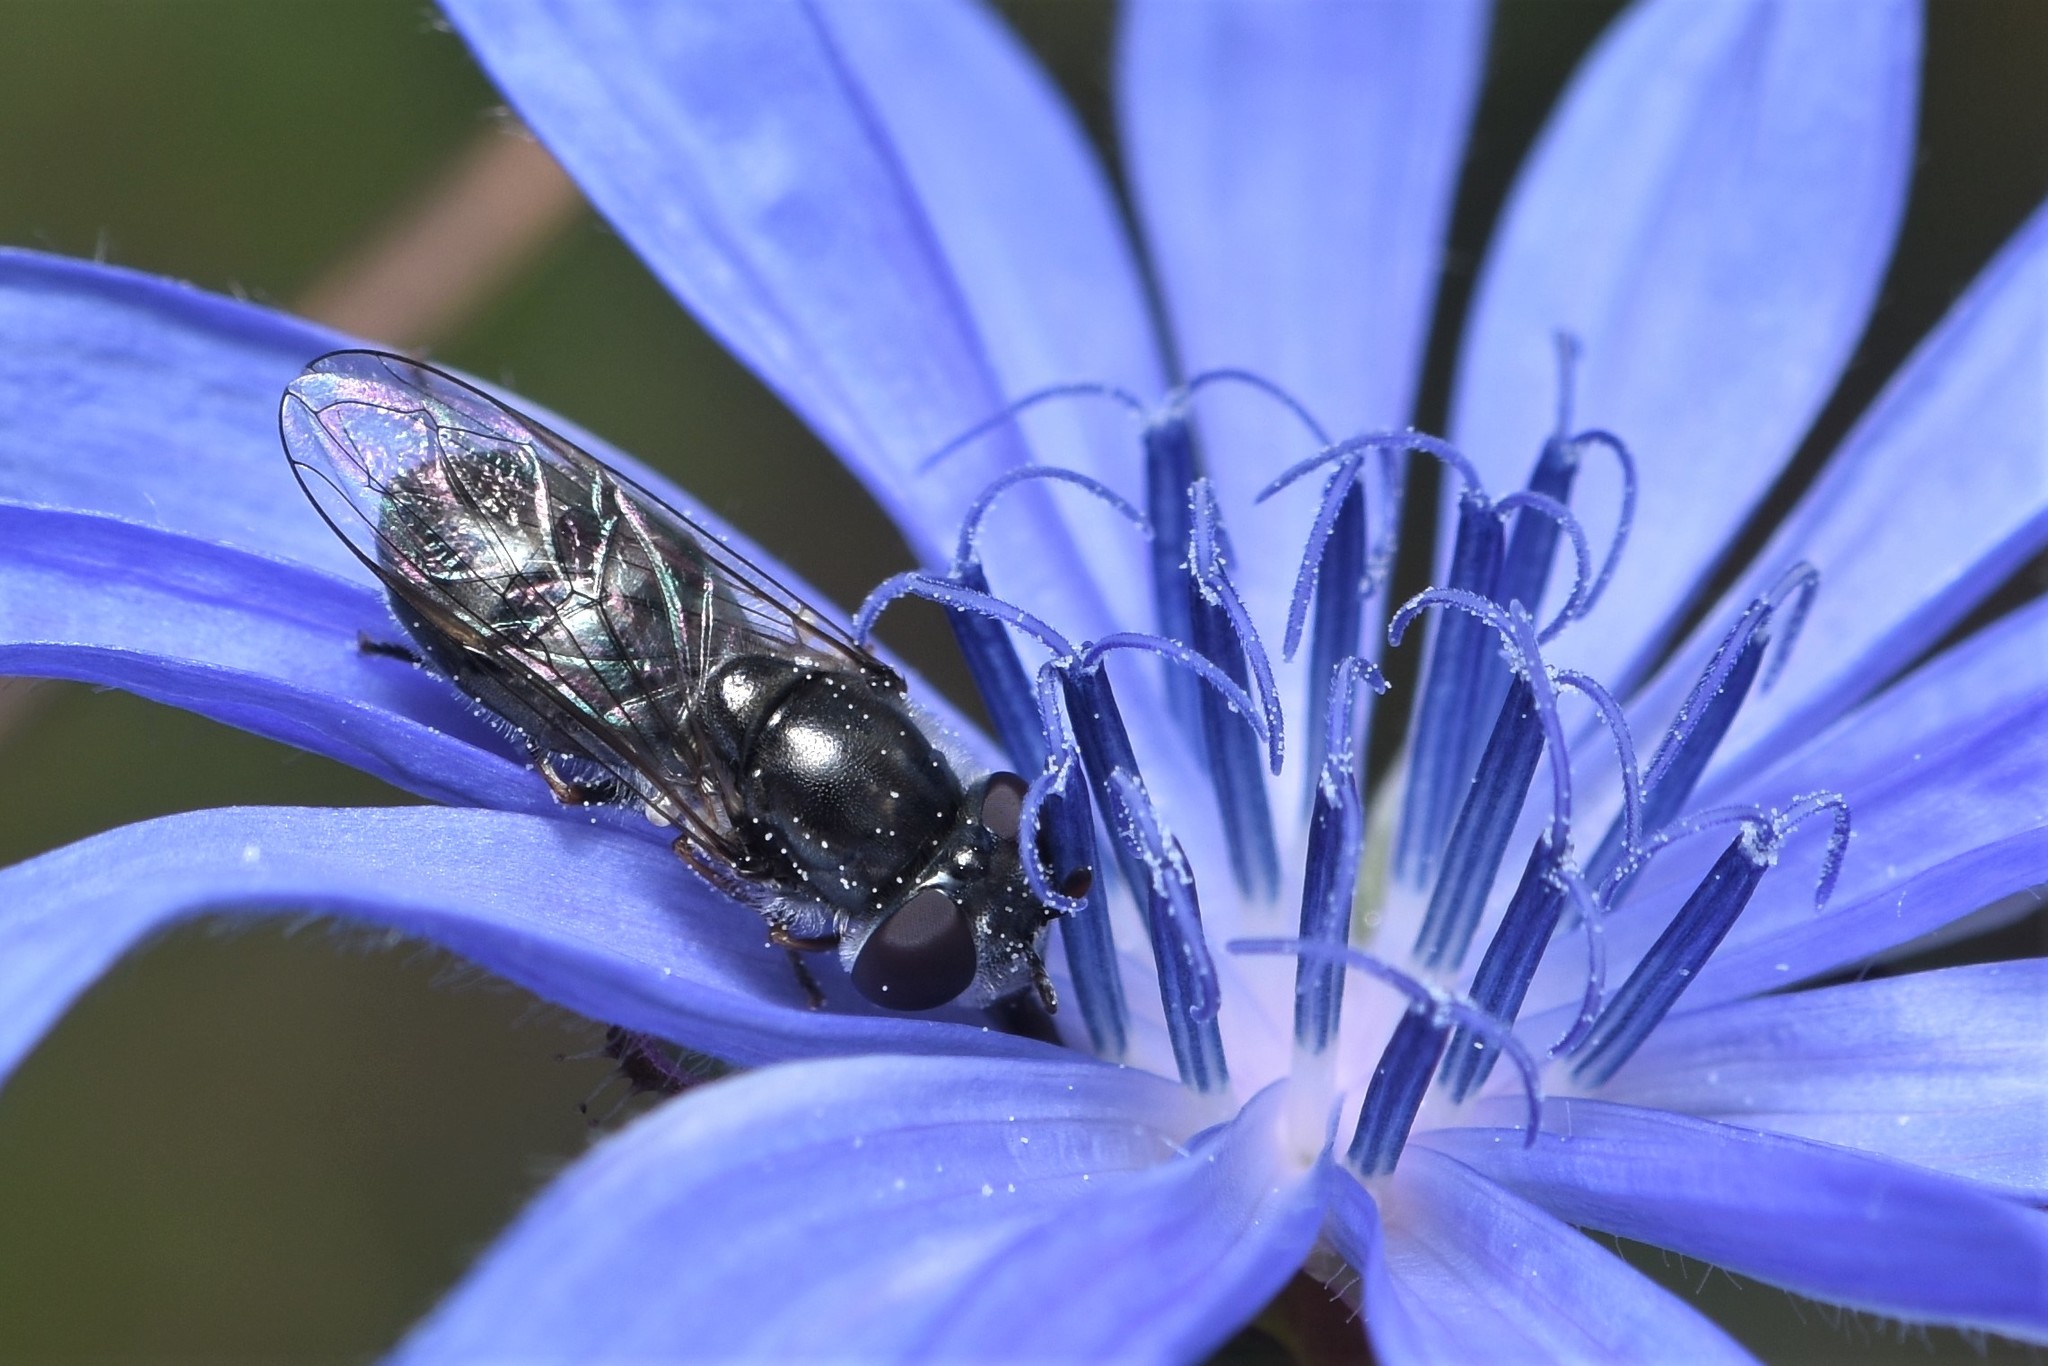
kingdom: Animalia
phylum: Arthropoda
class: Insecta
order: Diptera
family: Syrphidae
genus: Platycheirus
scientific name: Platycheirus stegnus
